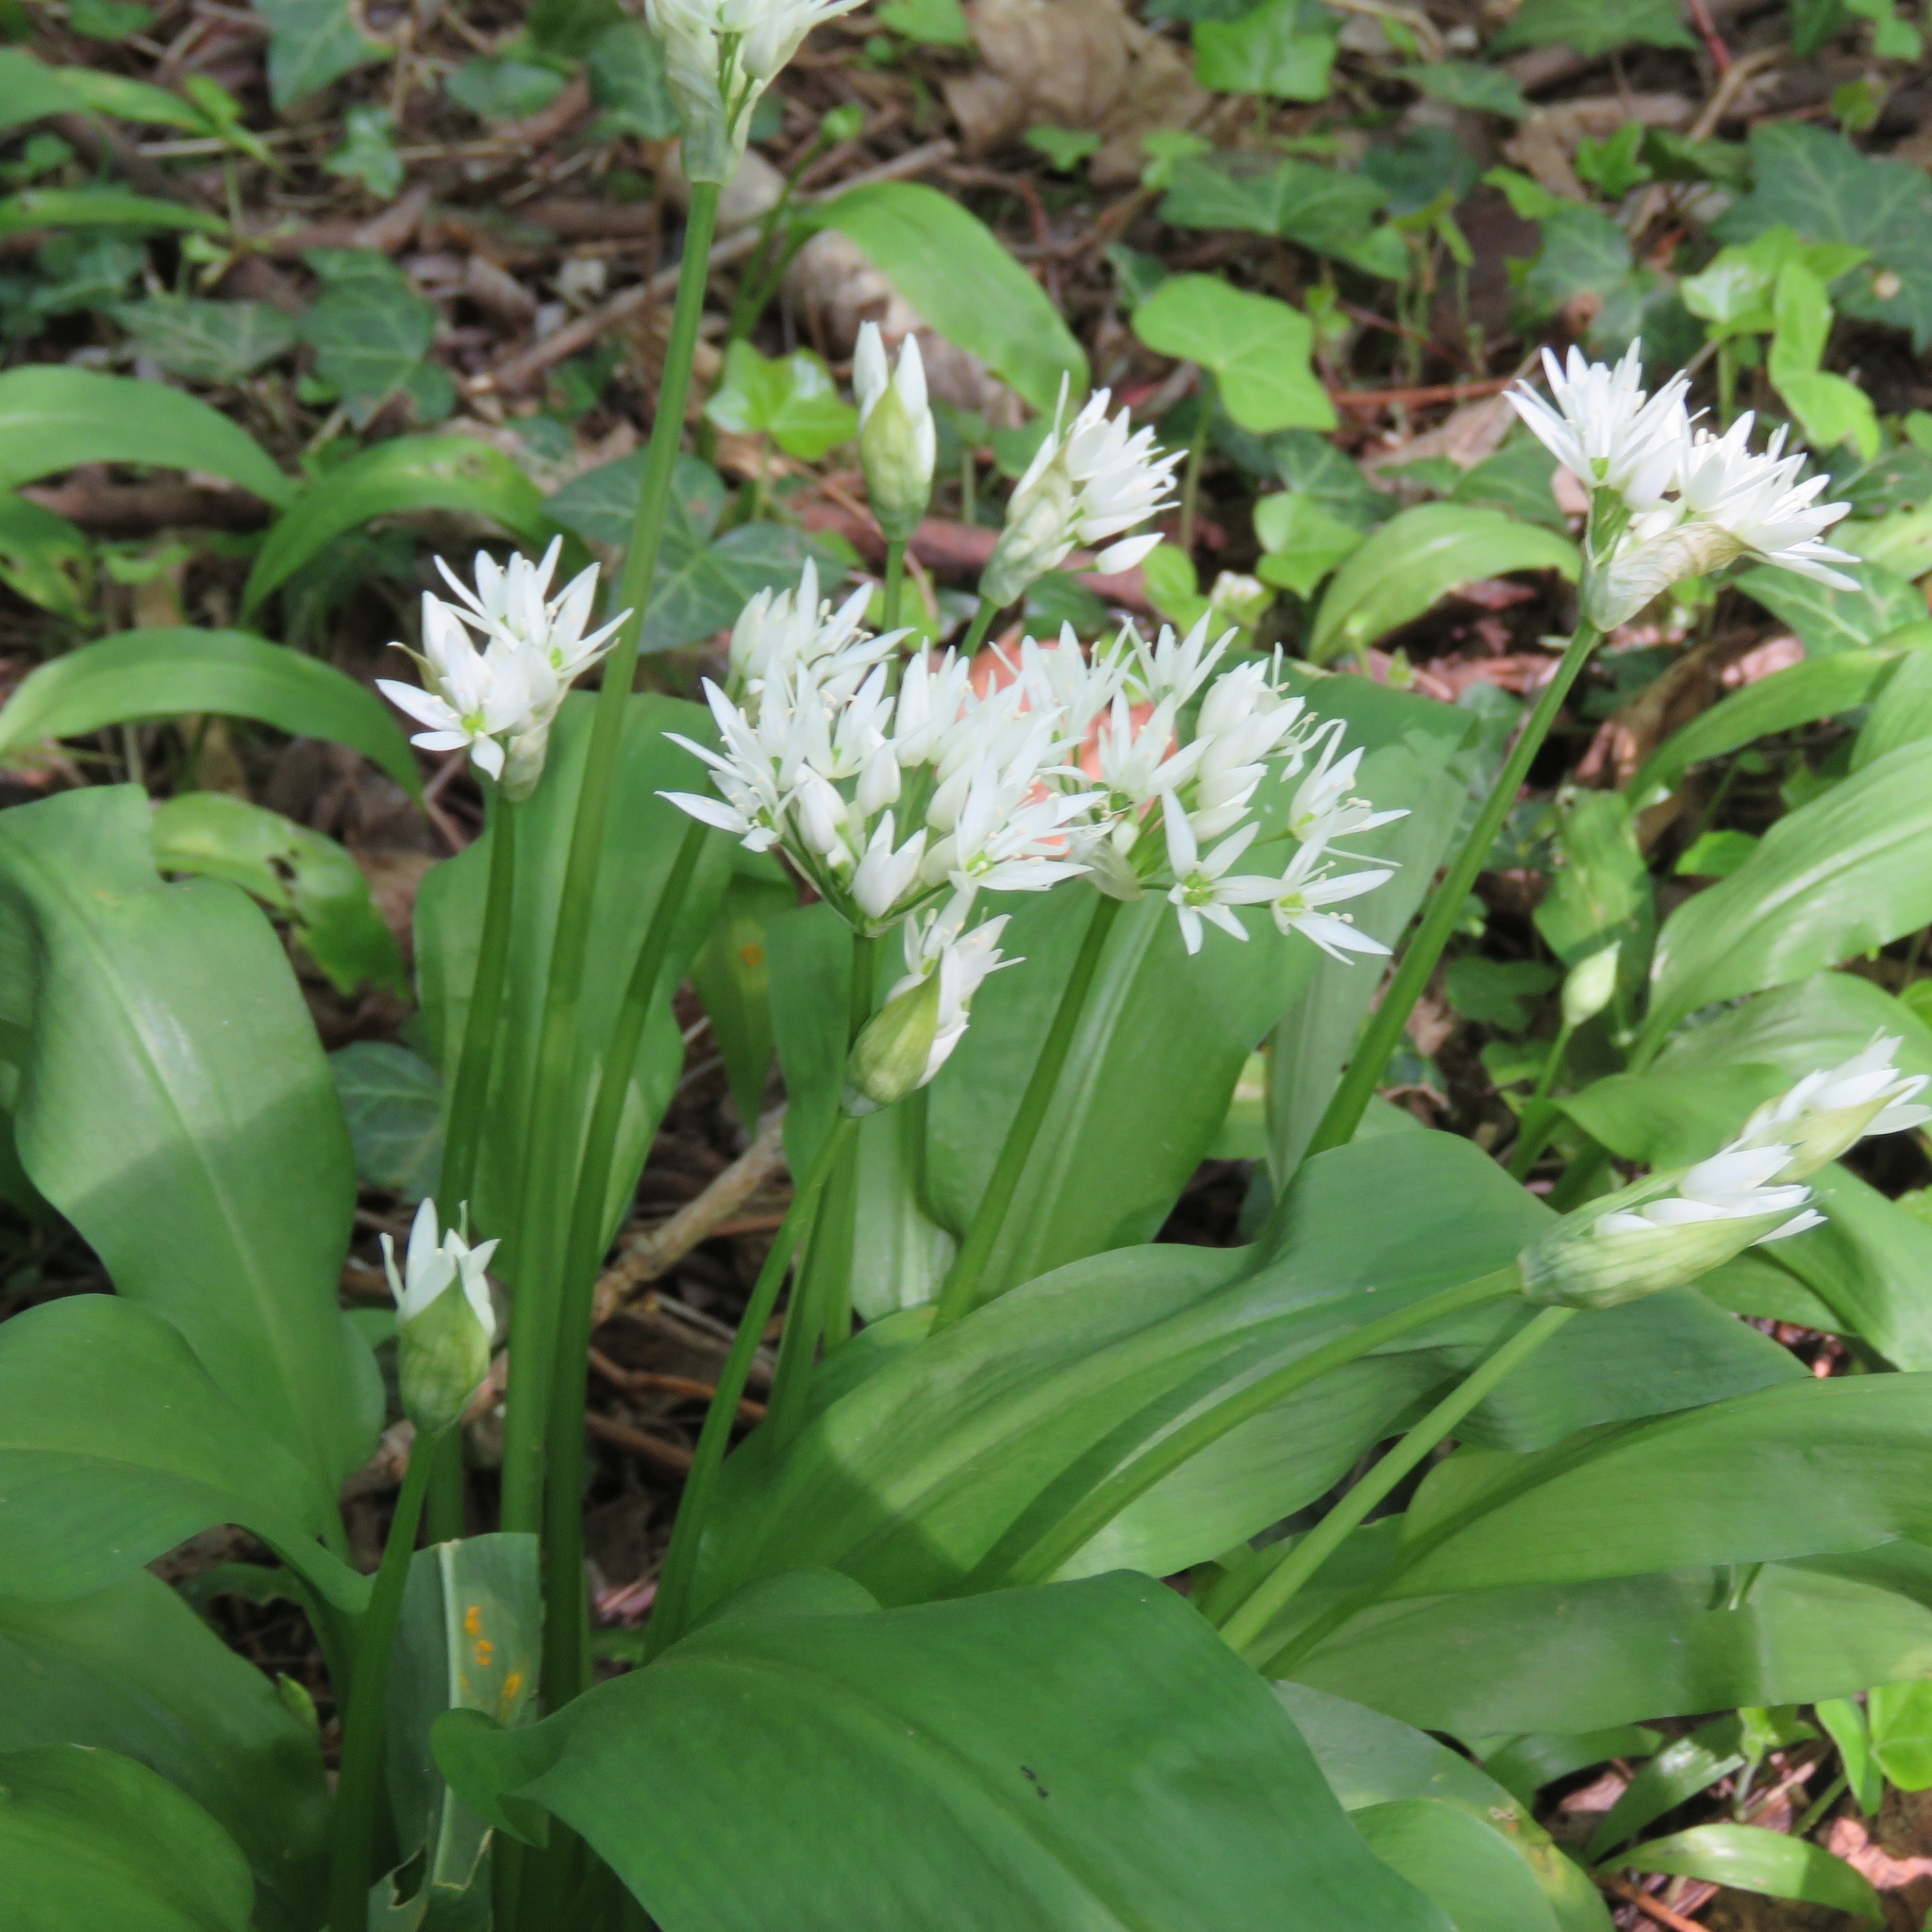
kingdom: Plantae
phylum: Tracheophyta
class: Liliopsida
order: Asparagales
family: Amaryllidaceae
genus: Allium
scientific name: Allium ursinum
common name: Ramsons
